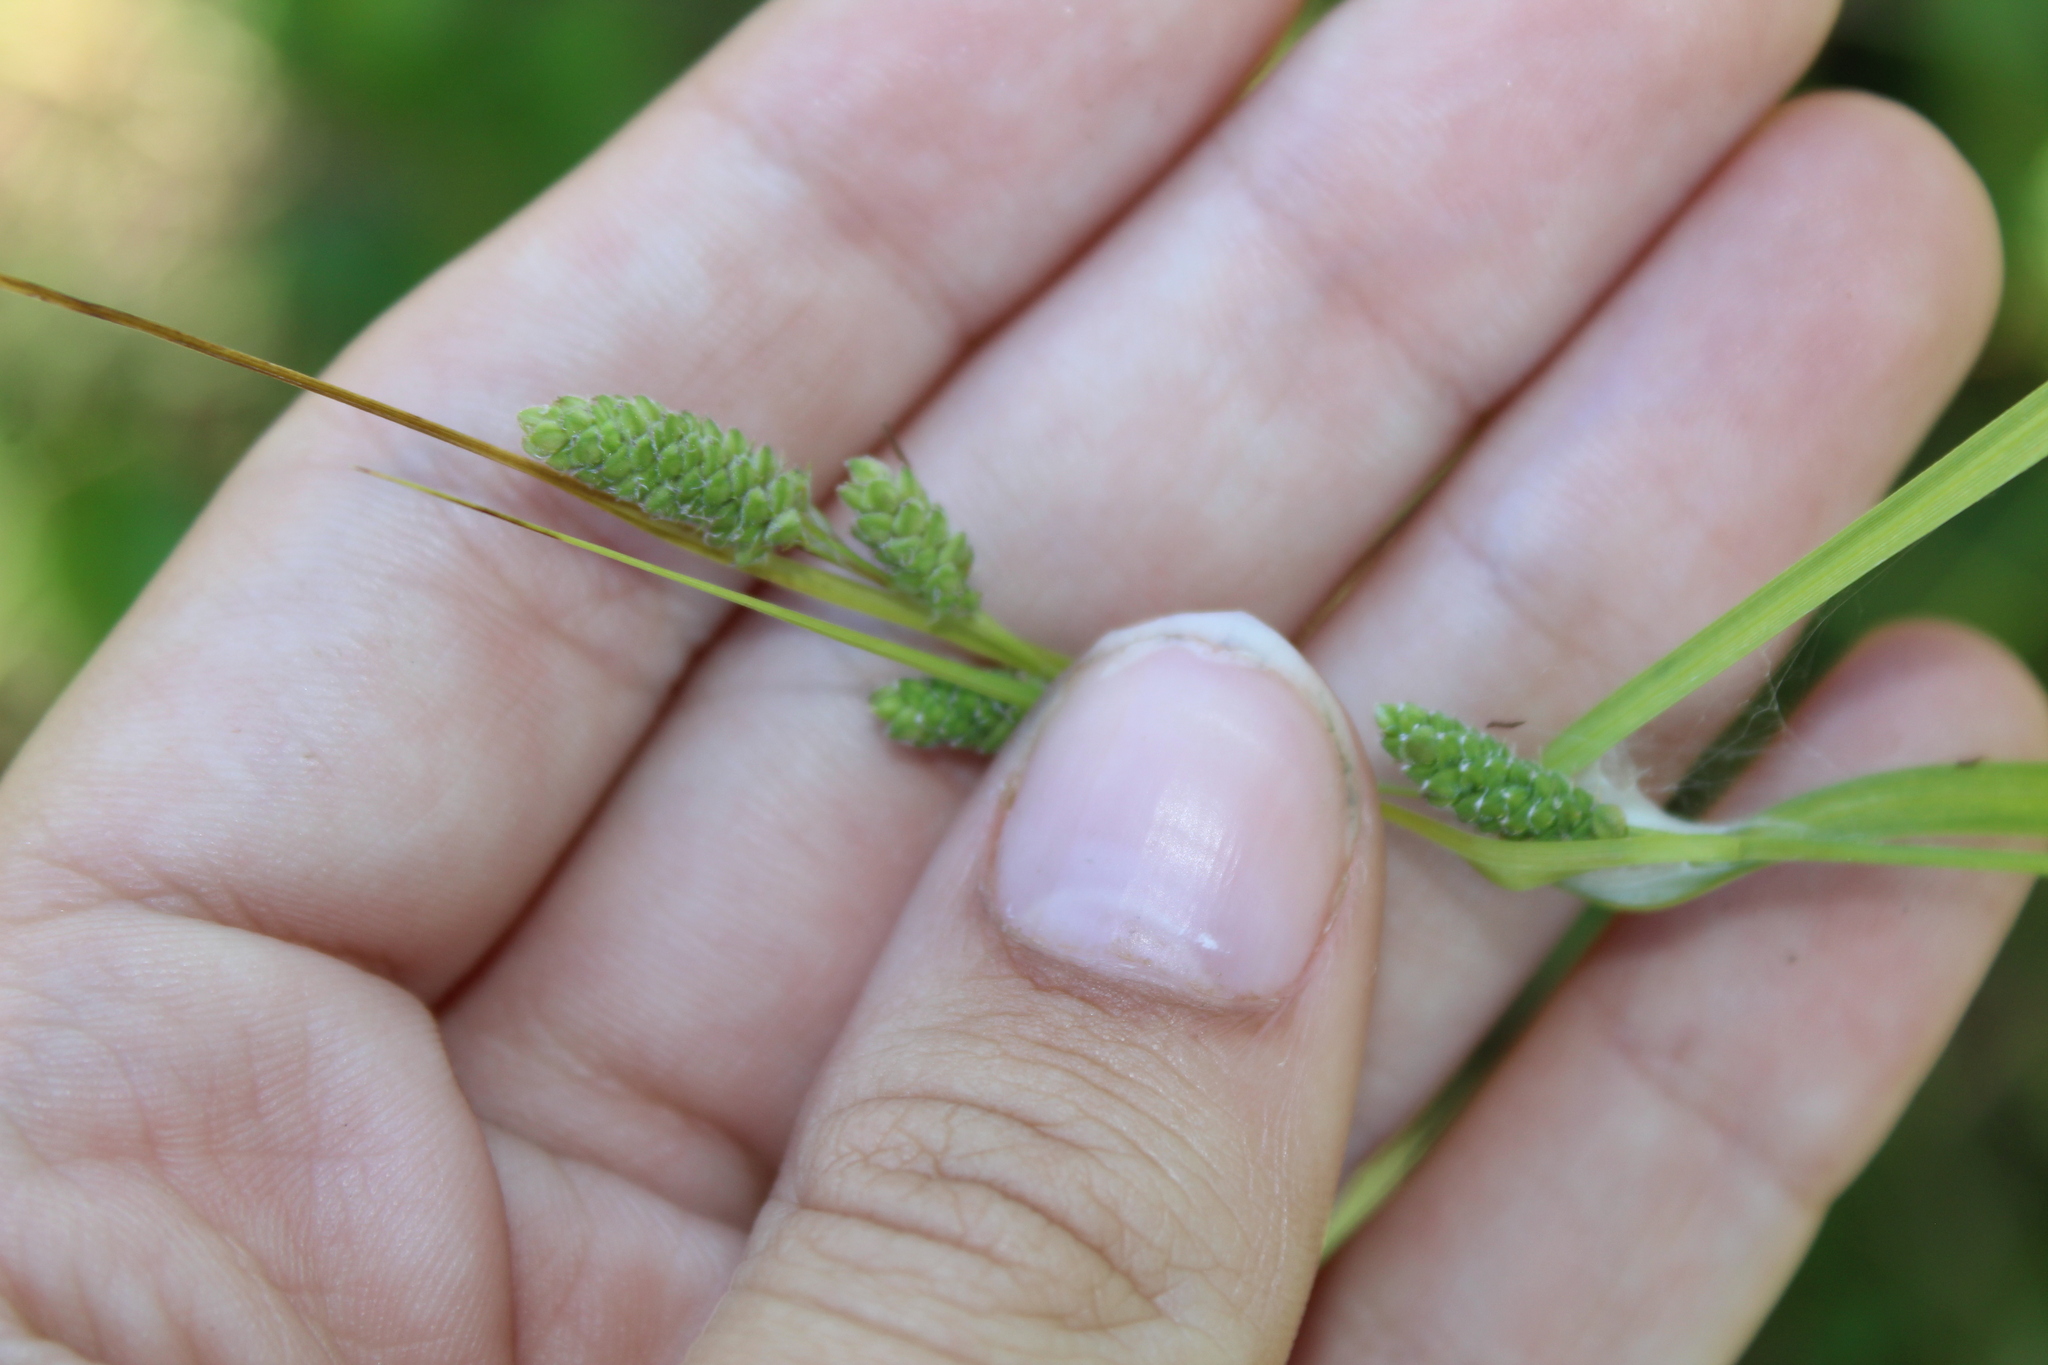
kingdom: Plantae
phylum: Tracheophyta
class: Liliopsida
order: Poales
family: Cyperaceae
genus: Carex
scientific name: Carex swanii
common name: Downy green sedge
